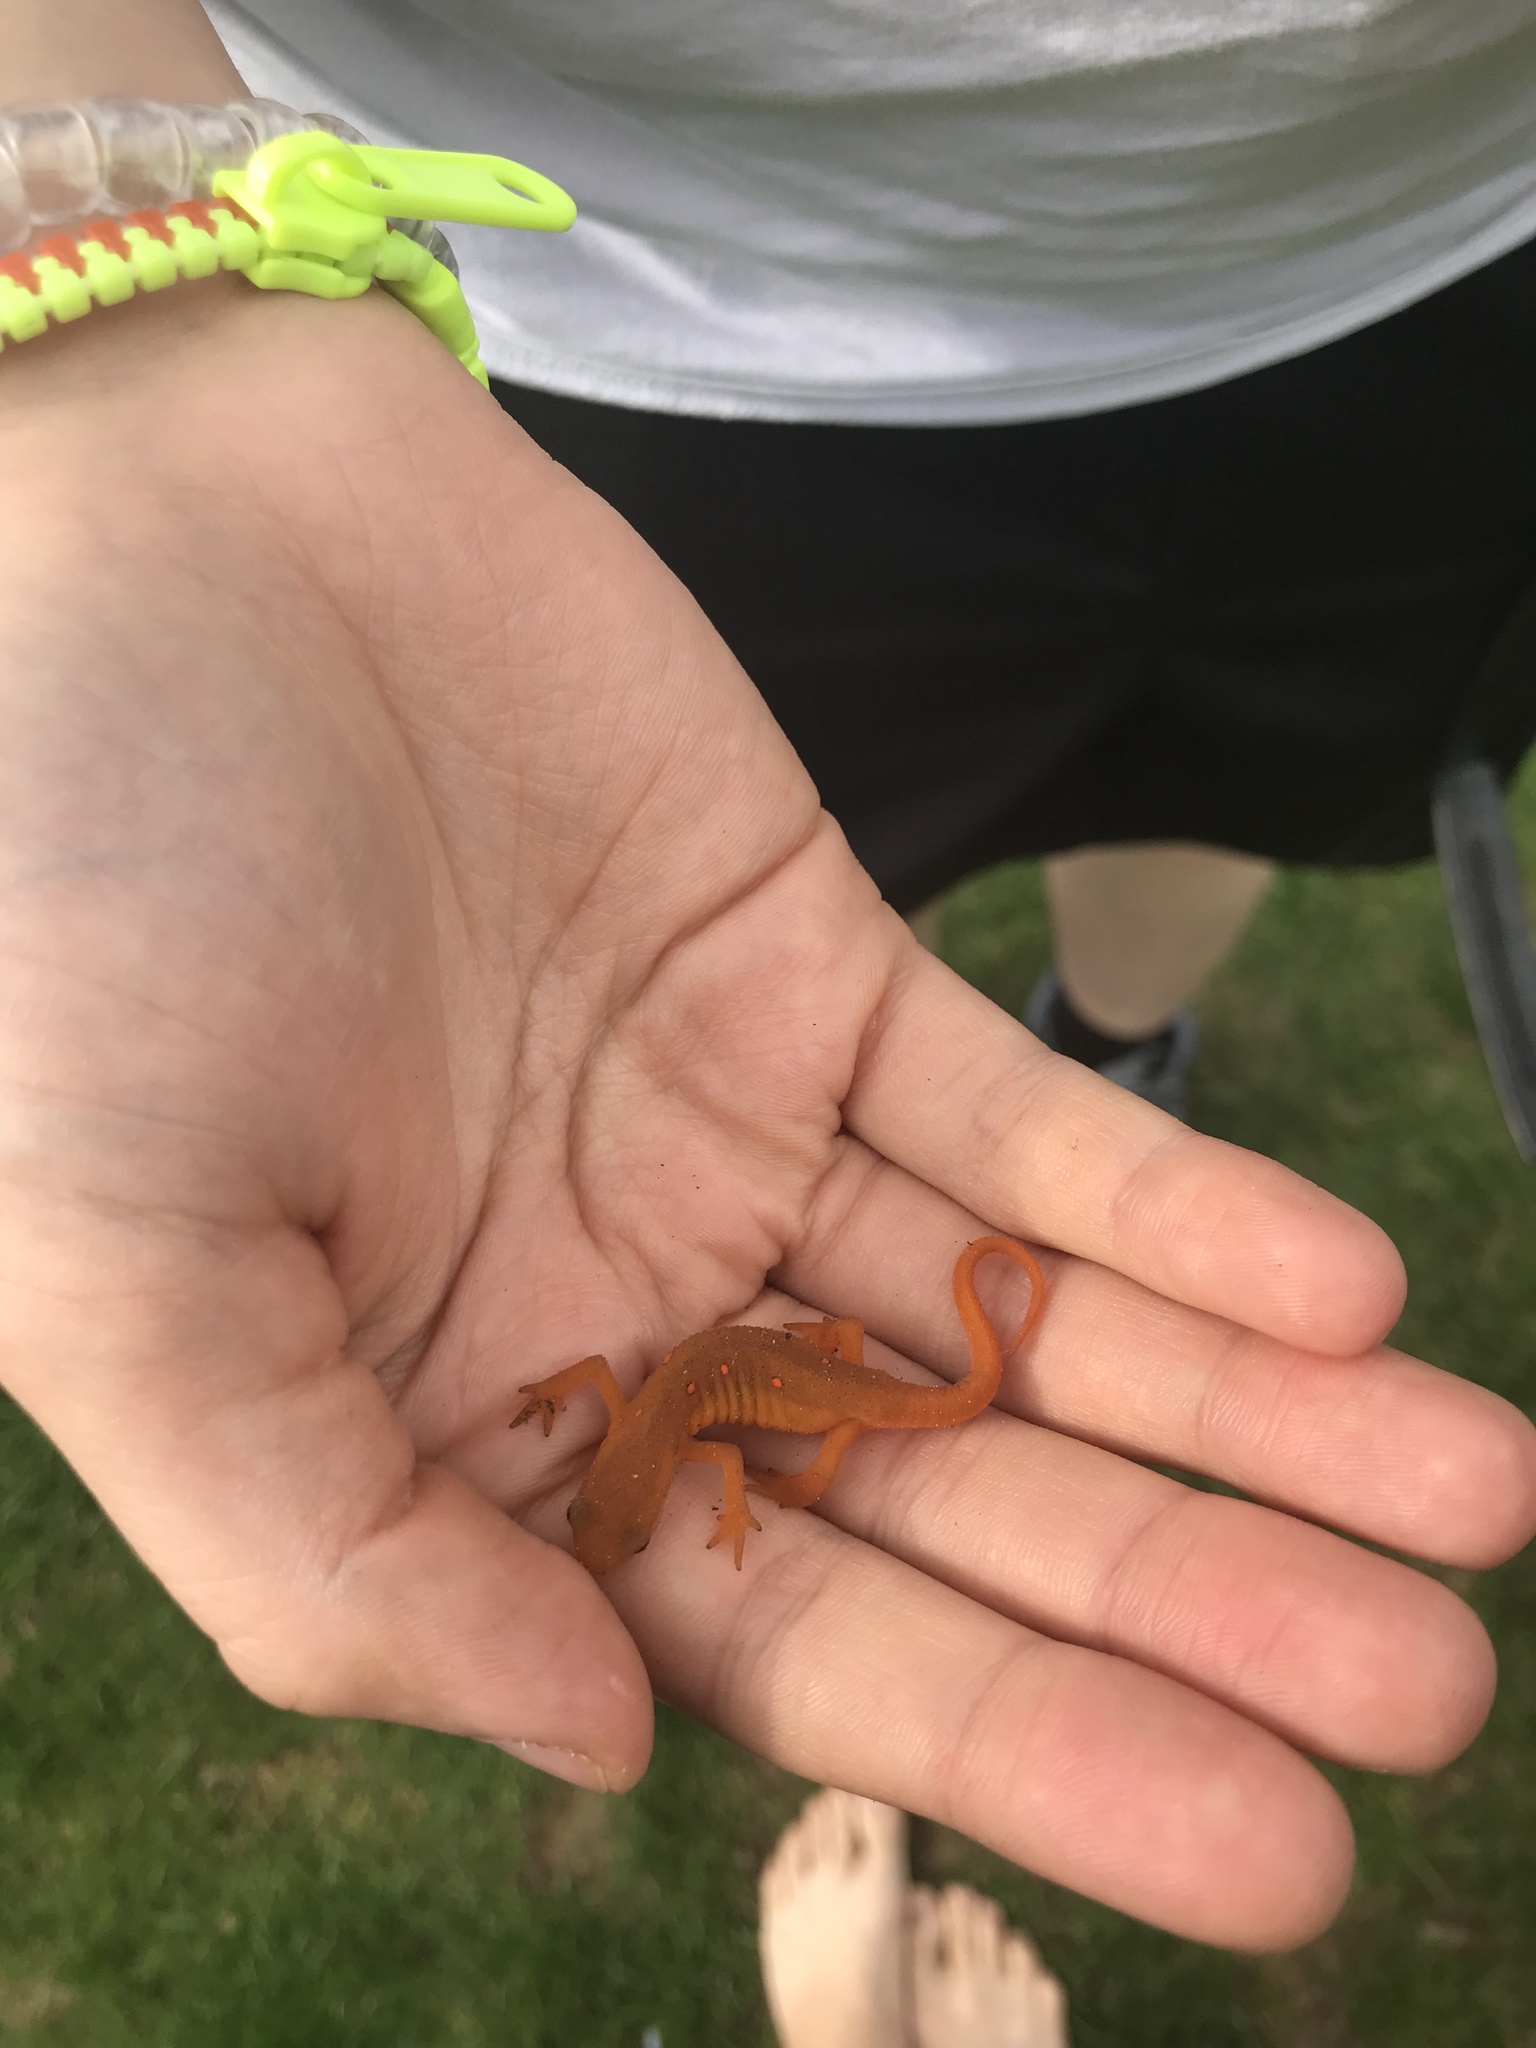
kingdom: Animalia
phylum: Chordata
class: Amphibia
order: Caudata
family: Salamandridae
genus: Notophthalmus
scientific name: Notophthalmus viridescens
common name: Eastern newt
